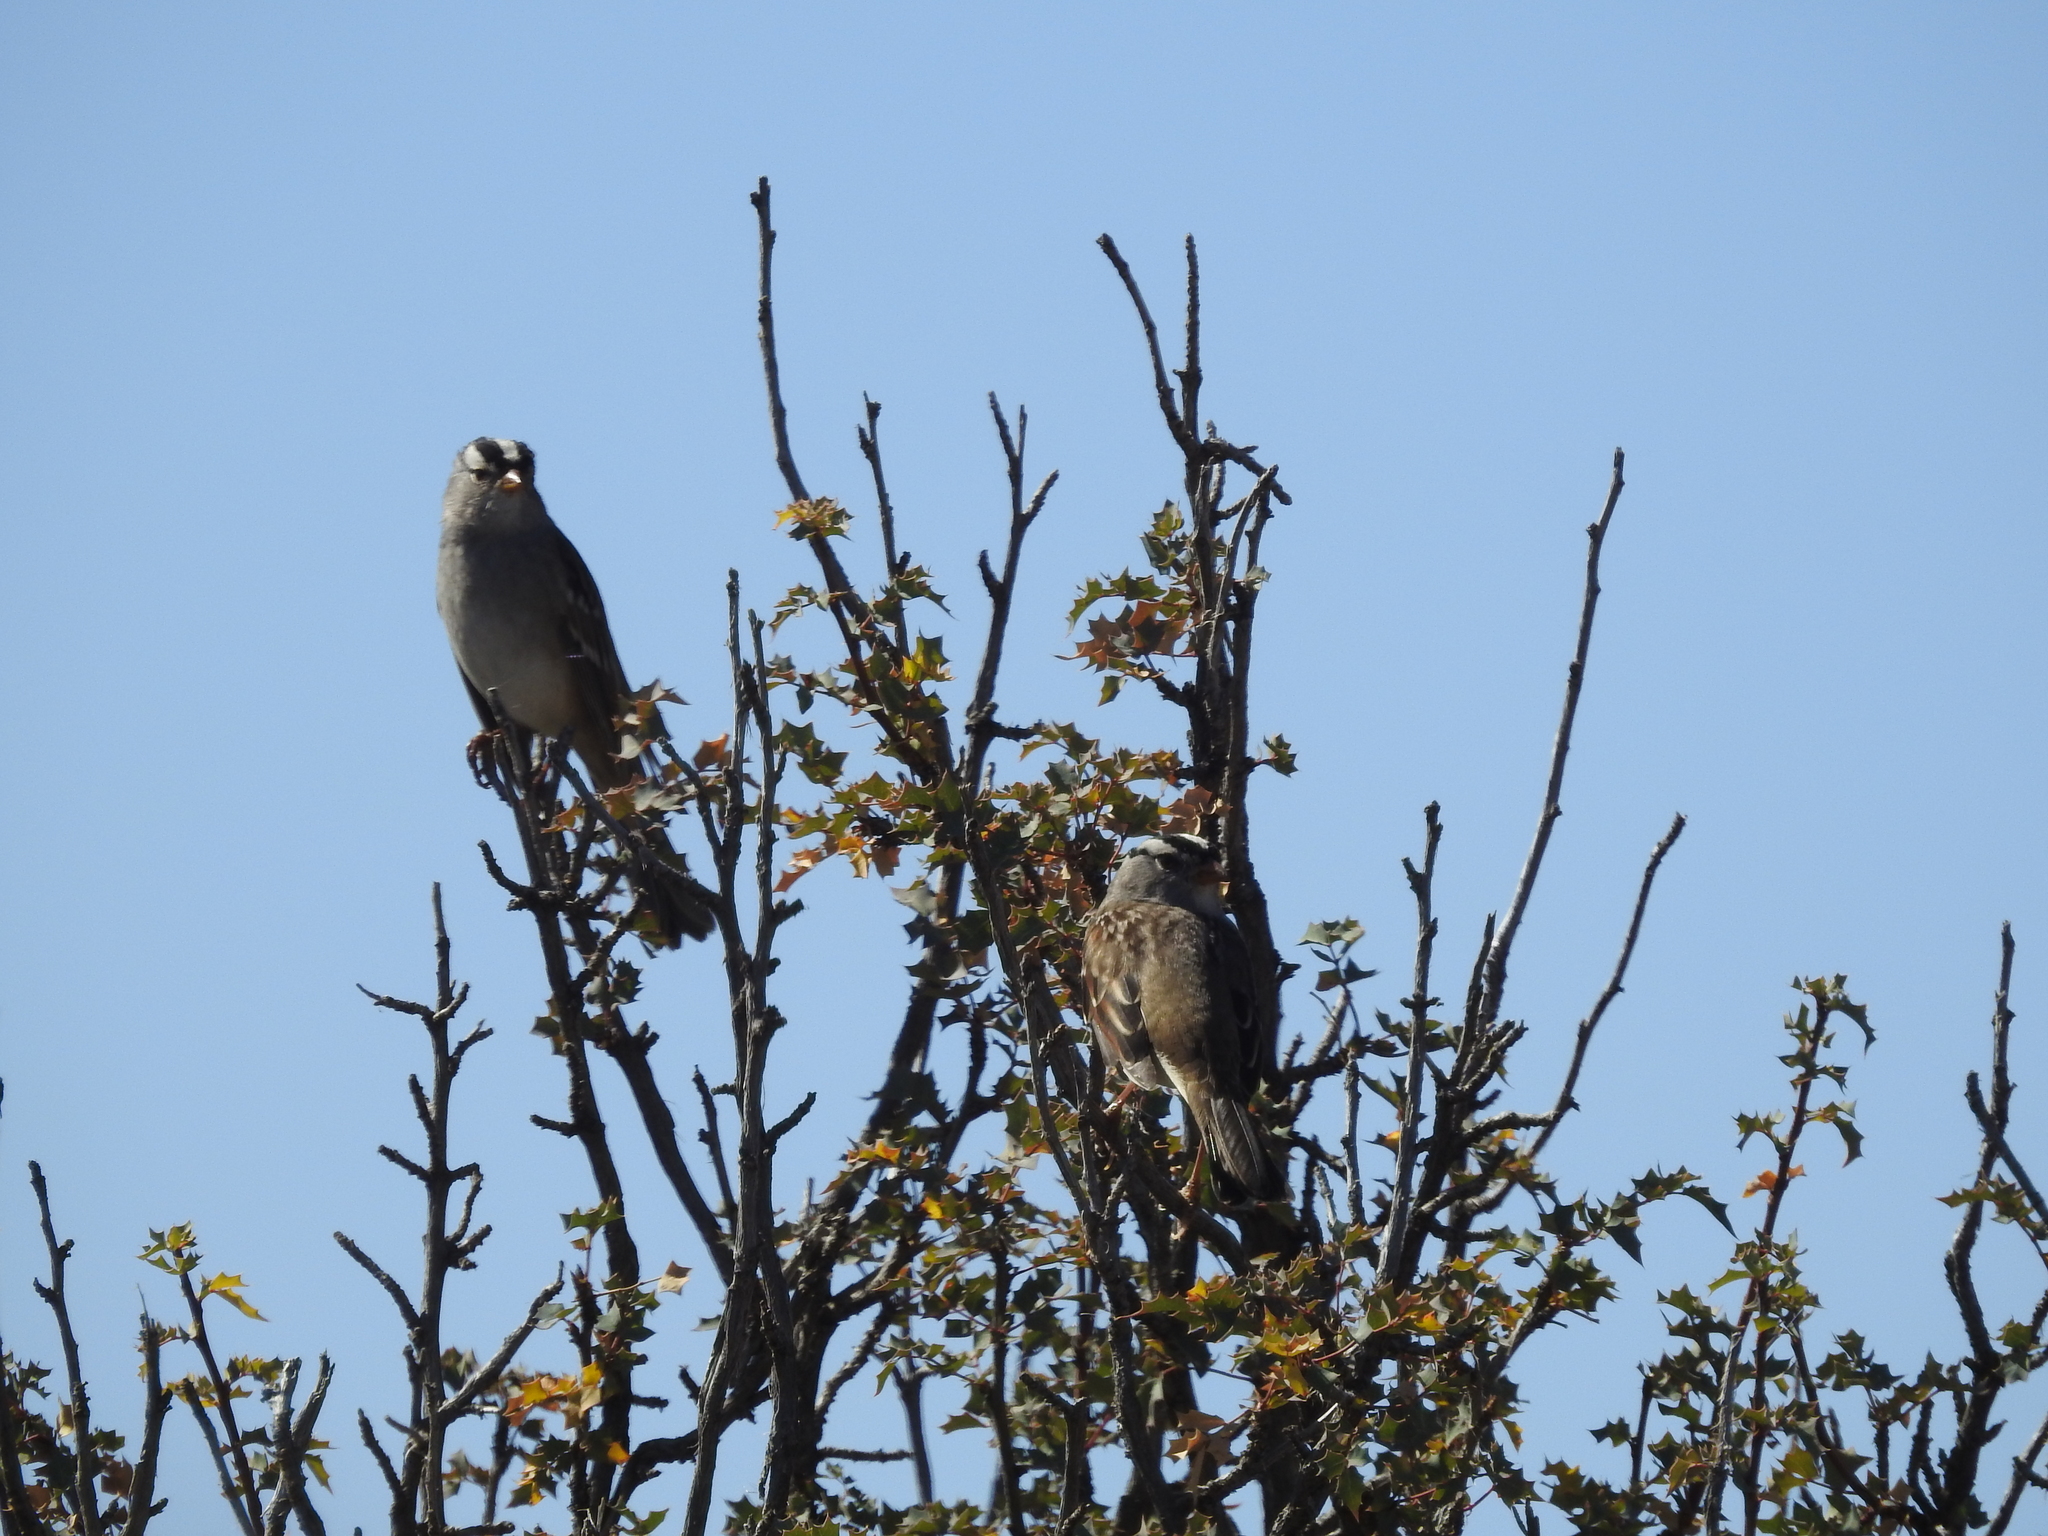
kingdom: Animalia
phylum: Chordata
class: Aves
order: Passeriformes
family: Passerellidae
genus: Zonotrichia
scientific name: Zonotrichia leucophrys
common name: White-crowned sparrow
